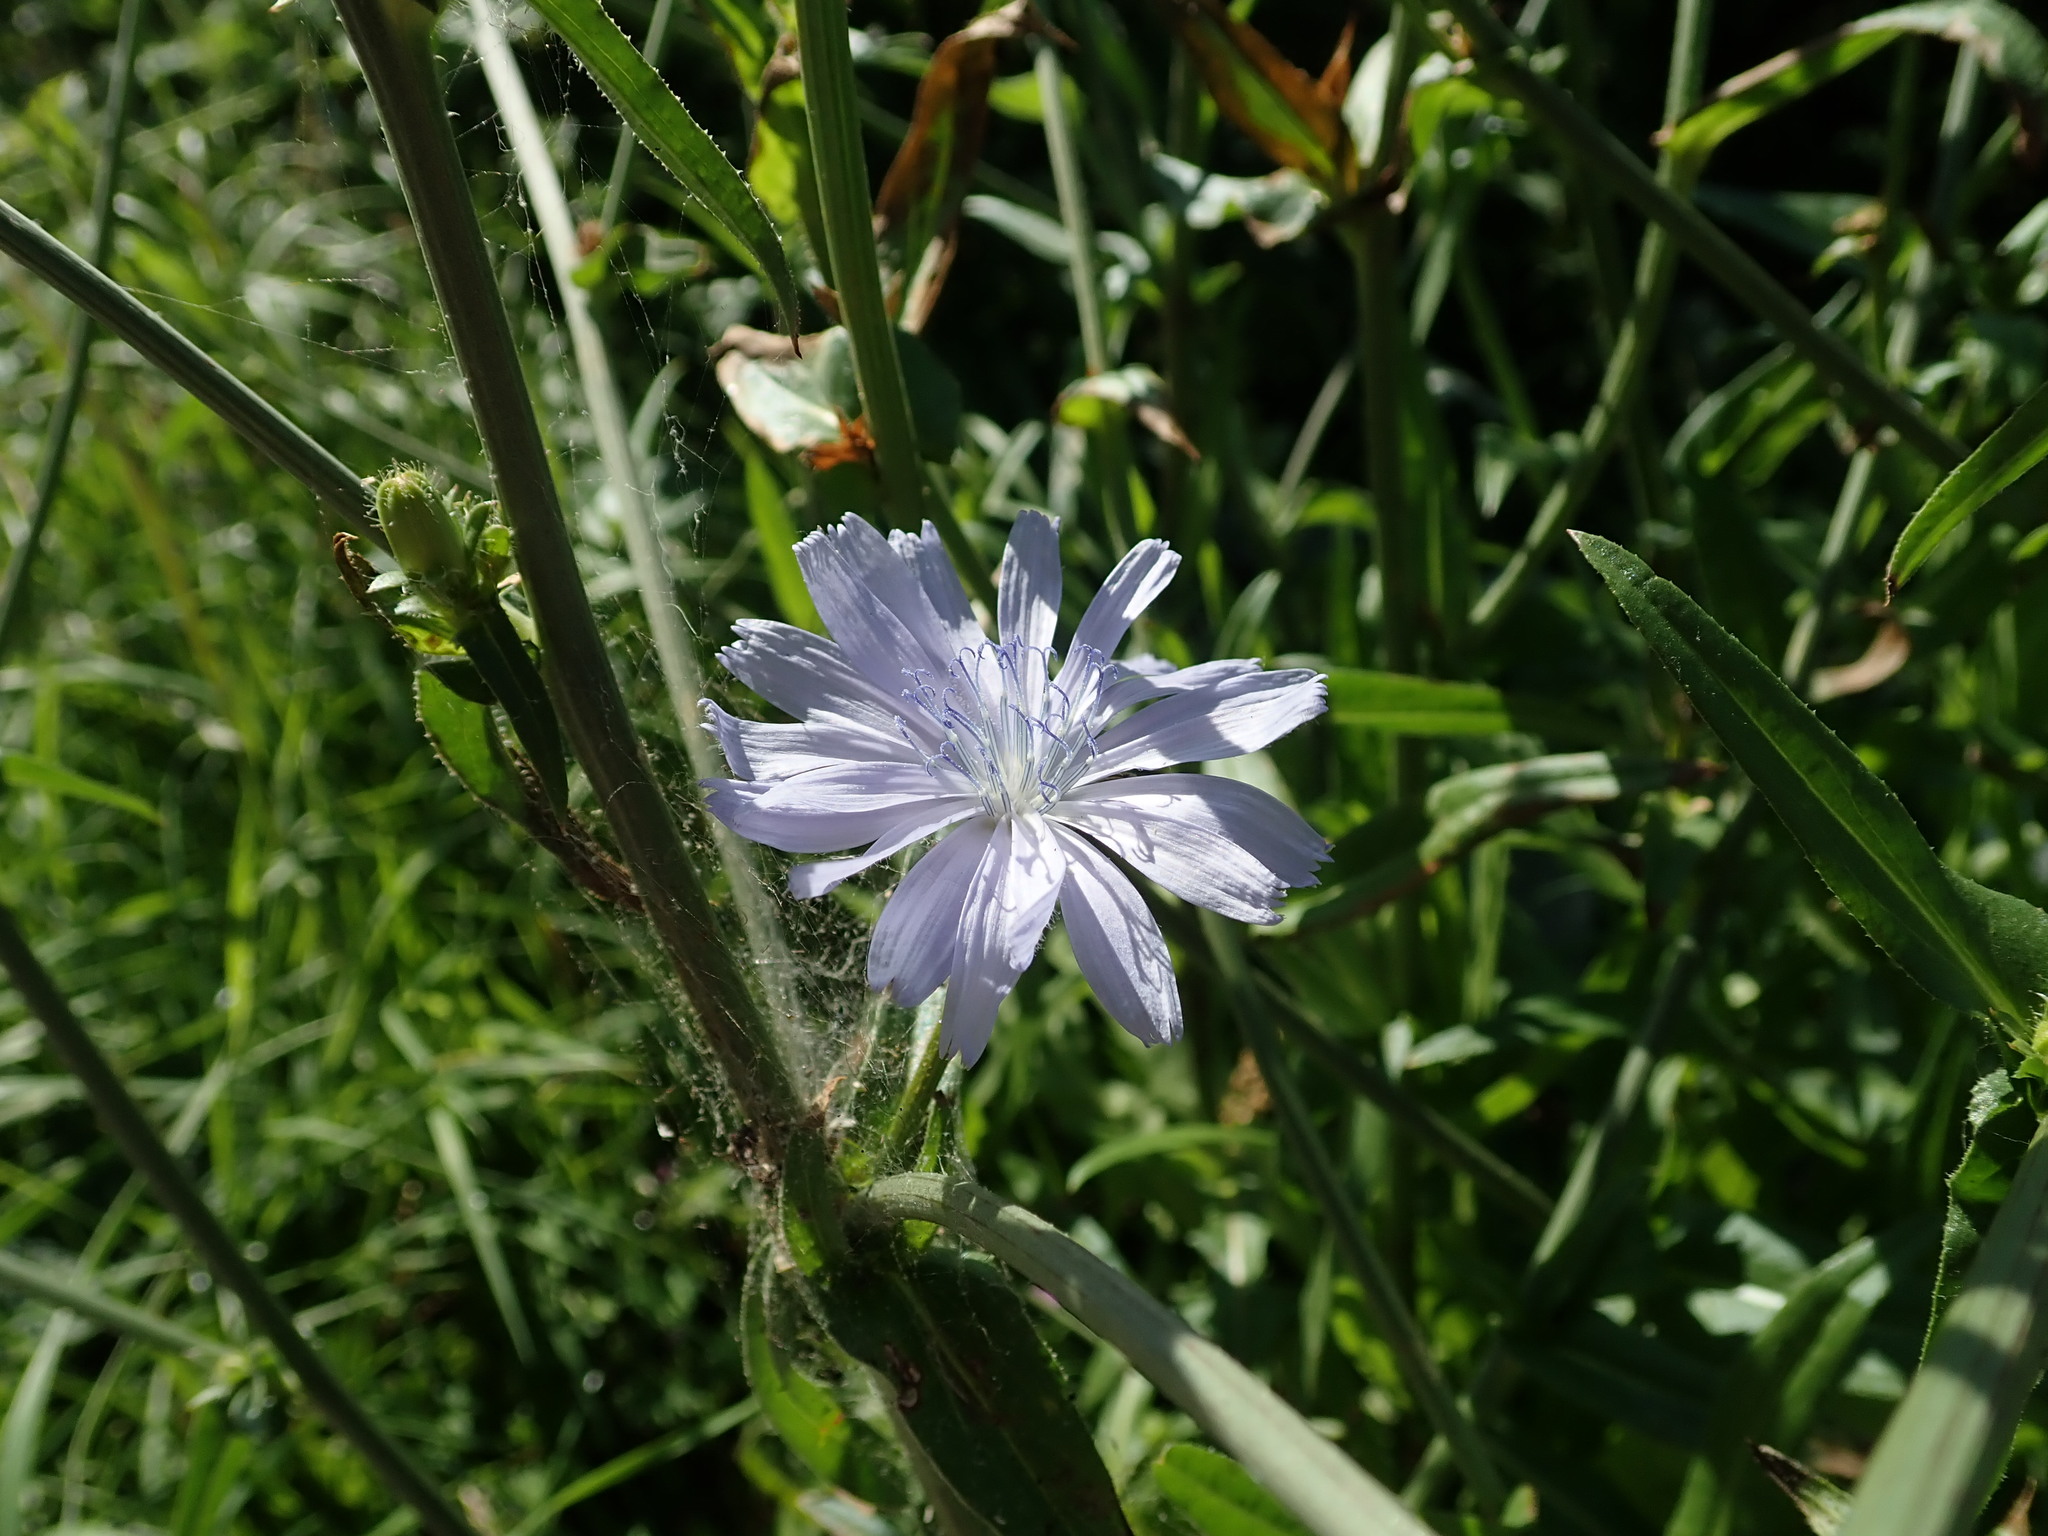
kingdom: Plantae
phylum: Tracheophyta
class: Magnoliopsida
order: Asterales
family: Asteraceae
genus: Cichorium
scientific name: Cichorium intybus
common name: Chicory
